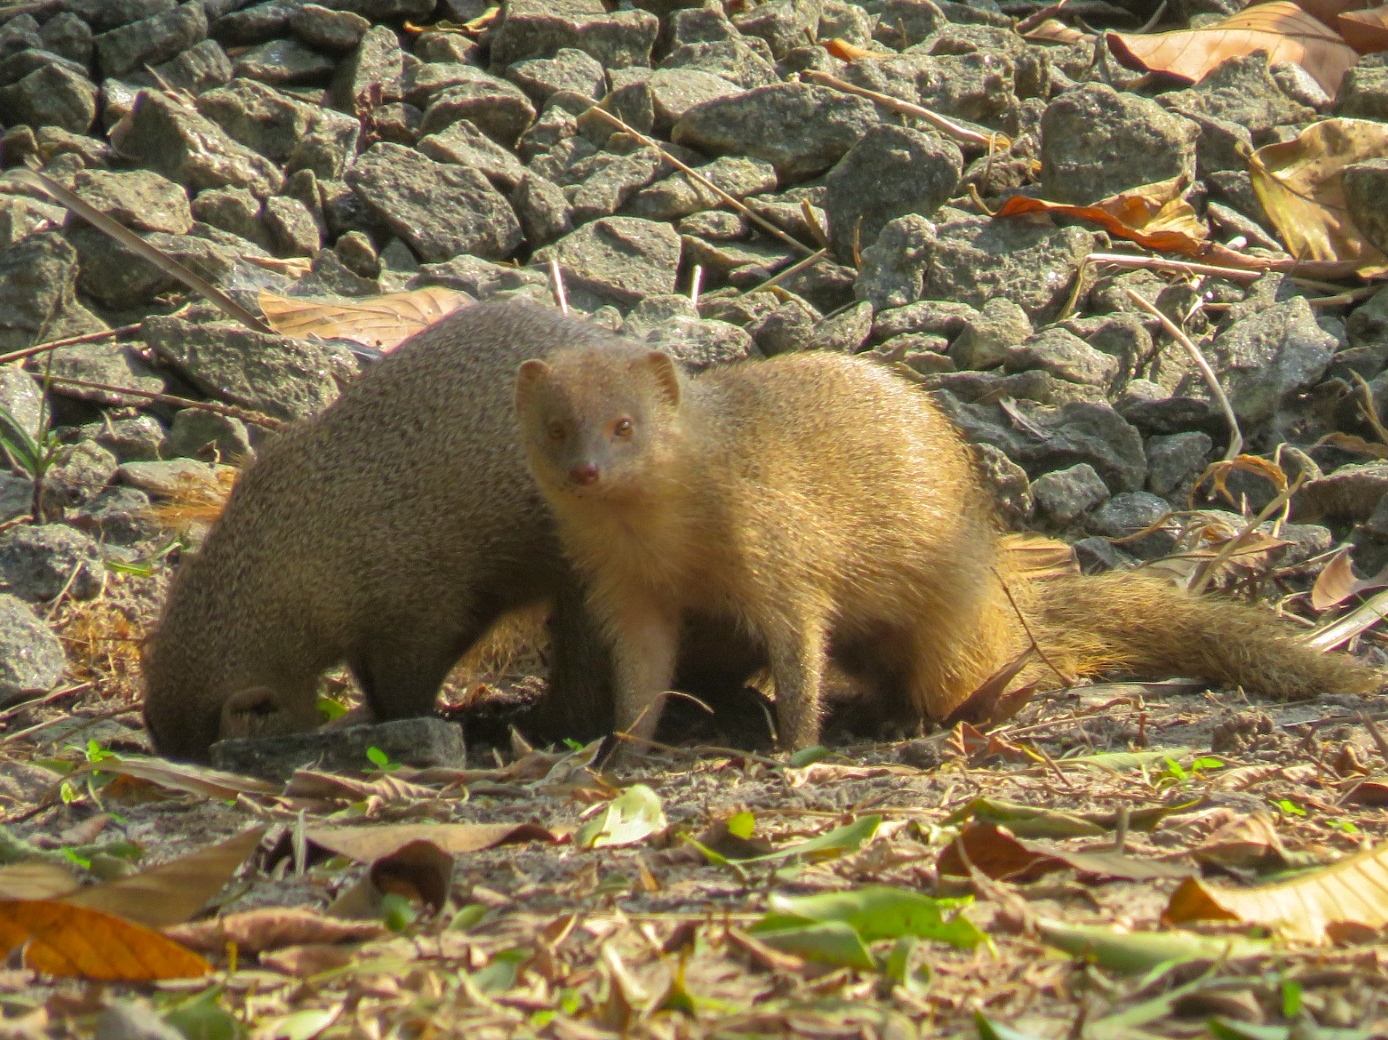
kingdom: Animalia
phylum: Chordata
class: Mammalia
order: Carnivora
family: Herpestidae
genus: Herpestes
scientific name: Herpestes edwardsi
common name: Indian gray mongoose
